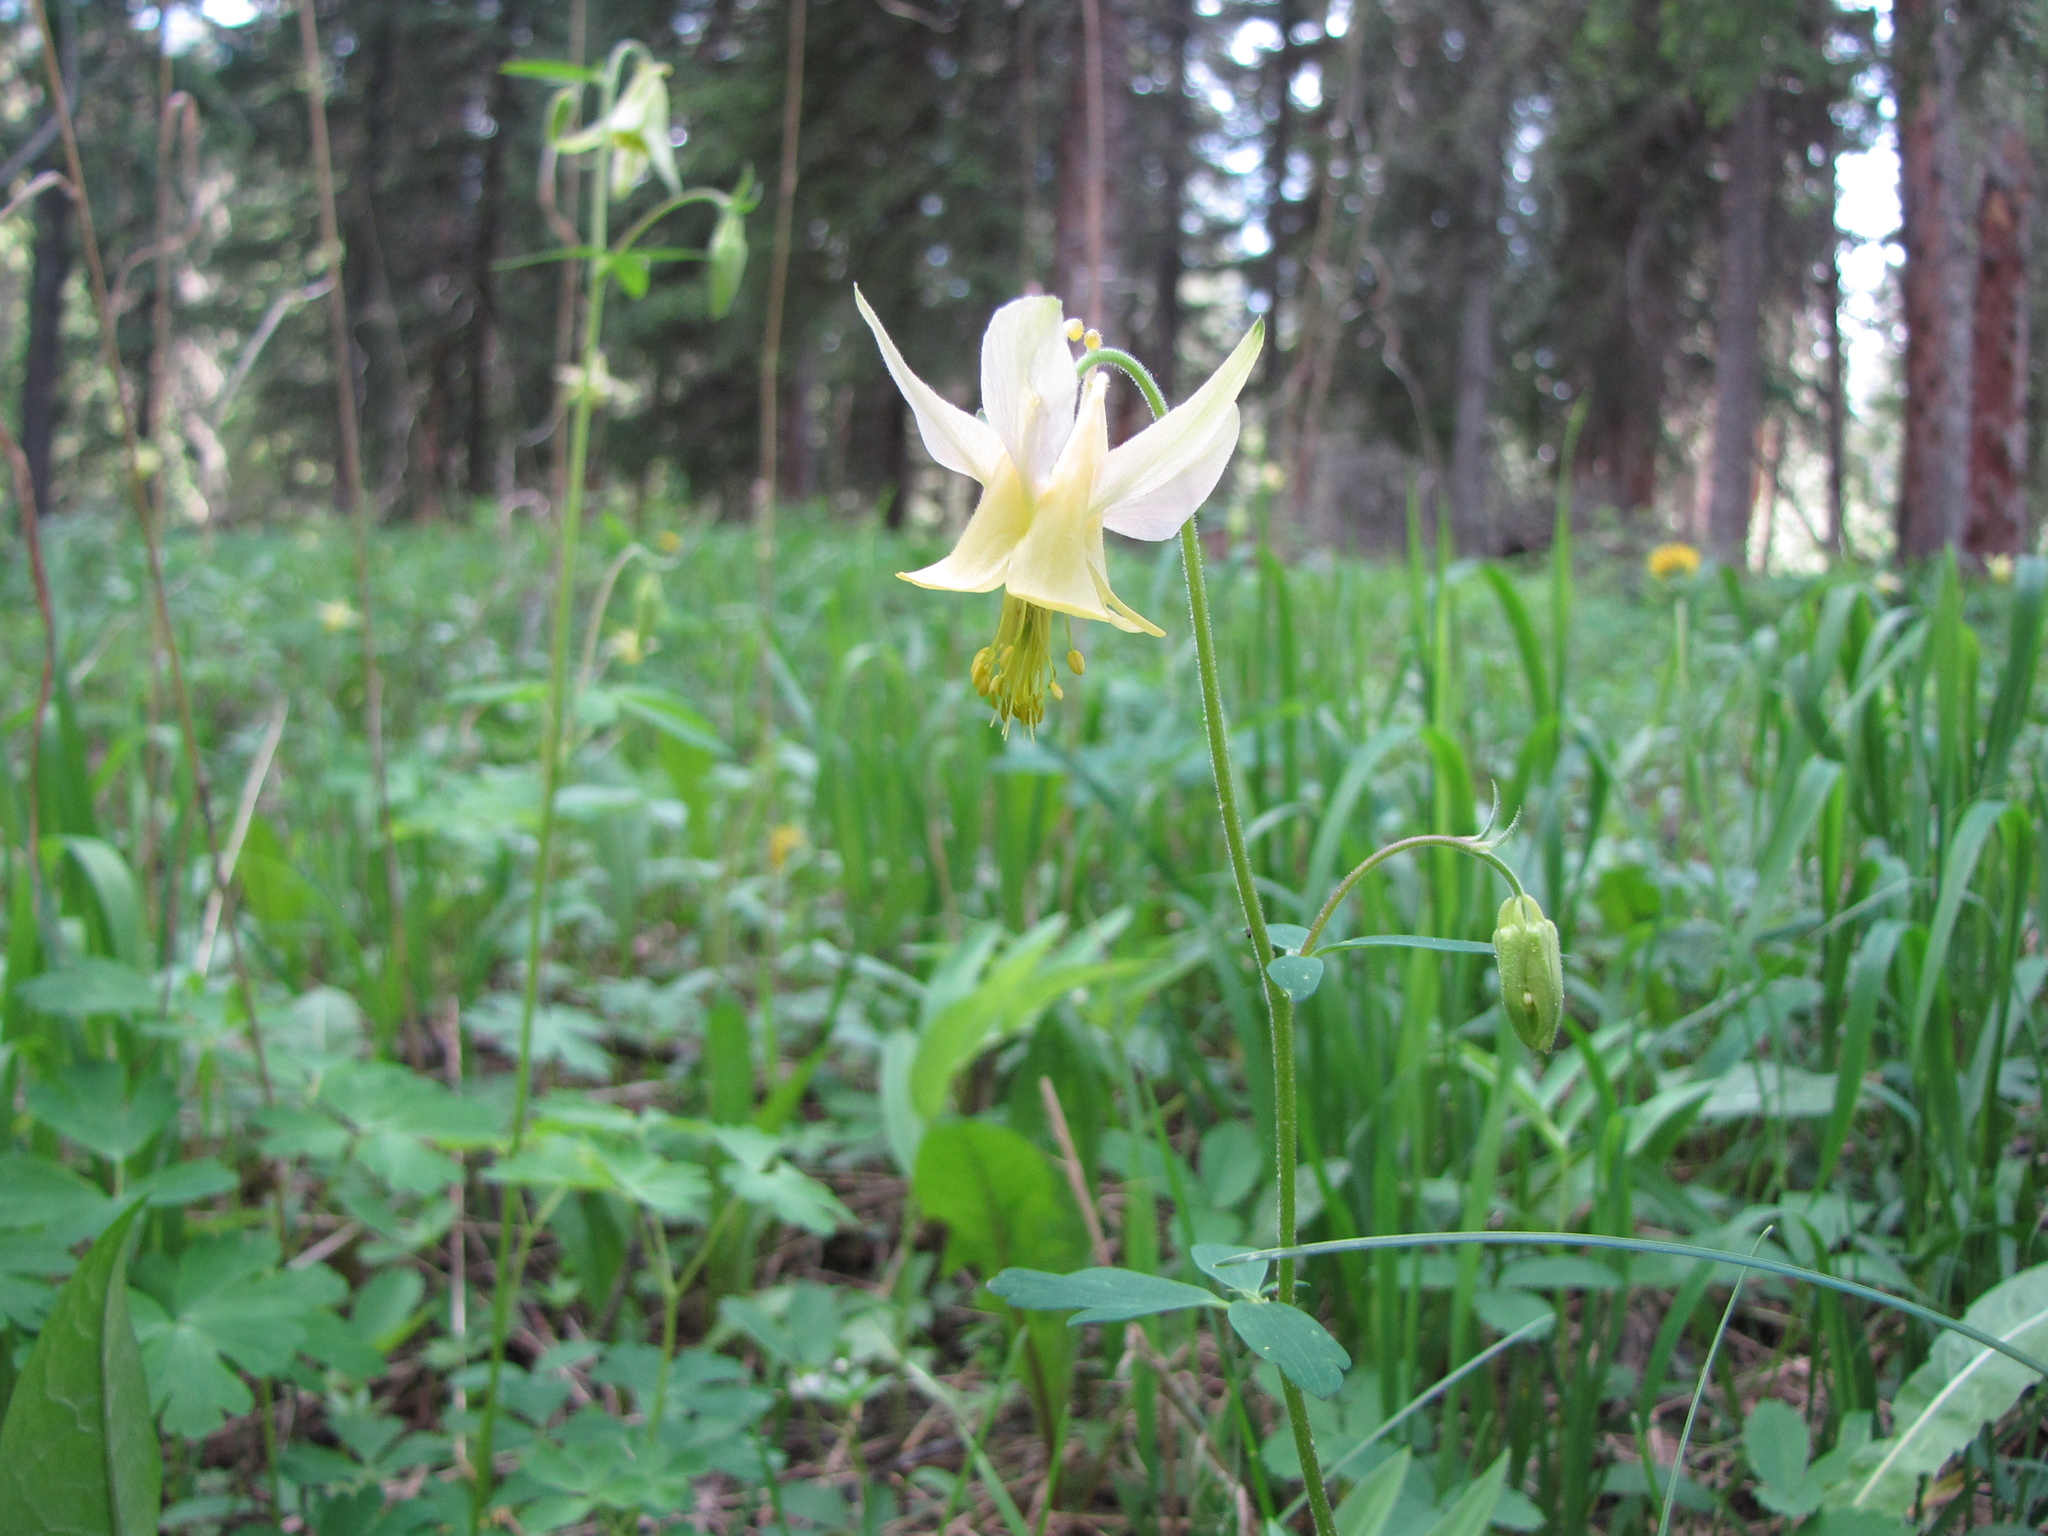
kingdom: Plantae
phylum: Tracheophyta
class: Magnoliopsida
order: Ranunculales
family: Ranunculaceae
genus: Aquilegia
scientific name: Aquilegia flavescens
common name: Yellow columbine
